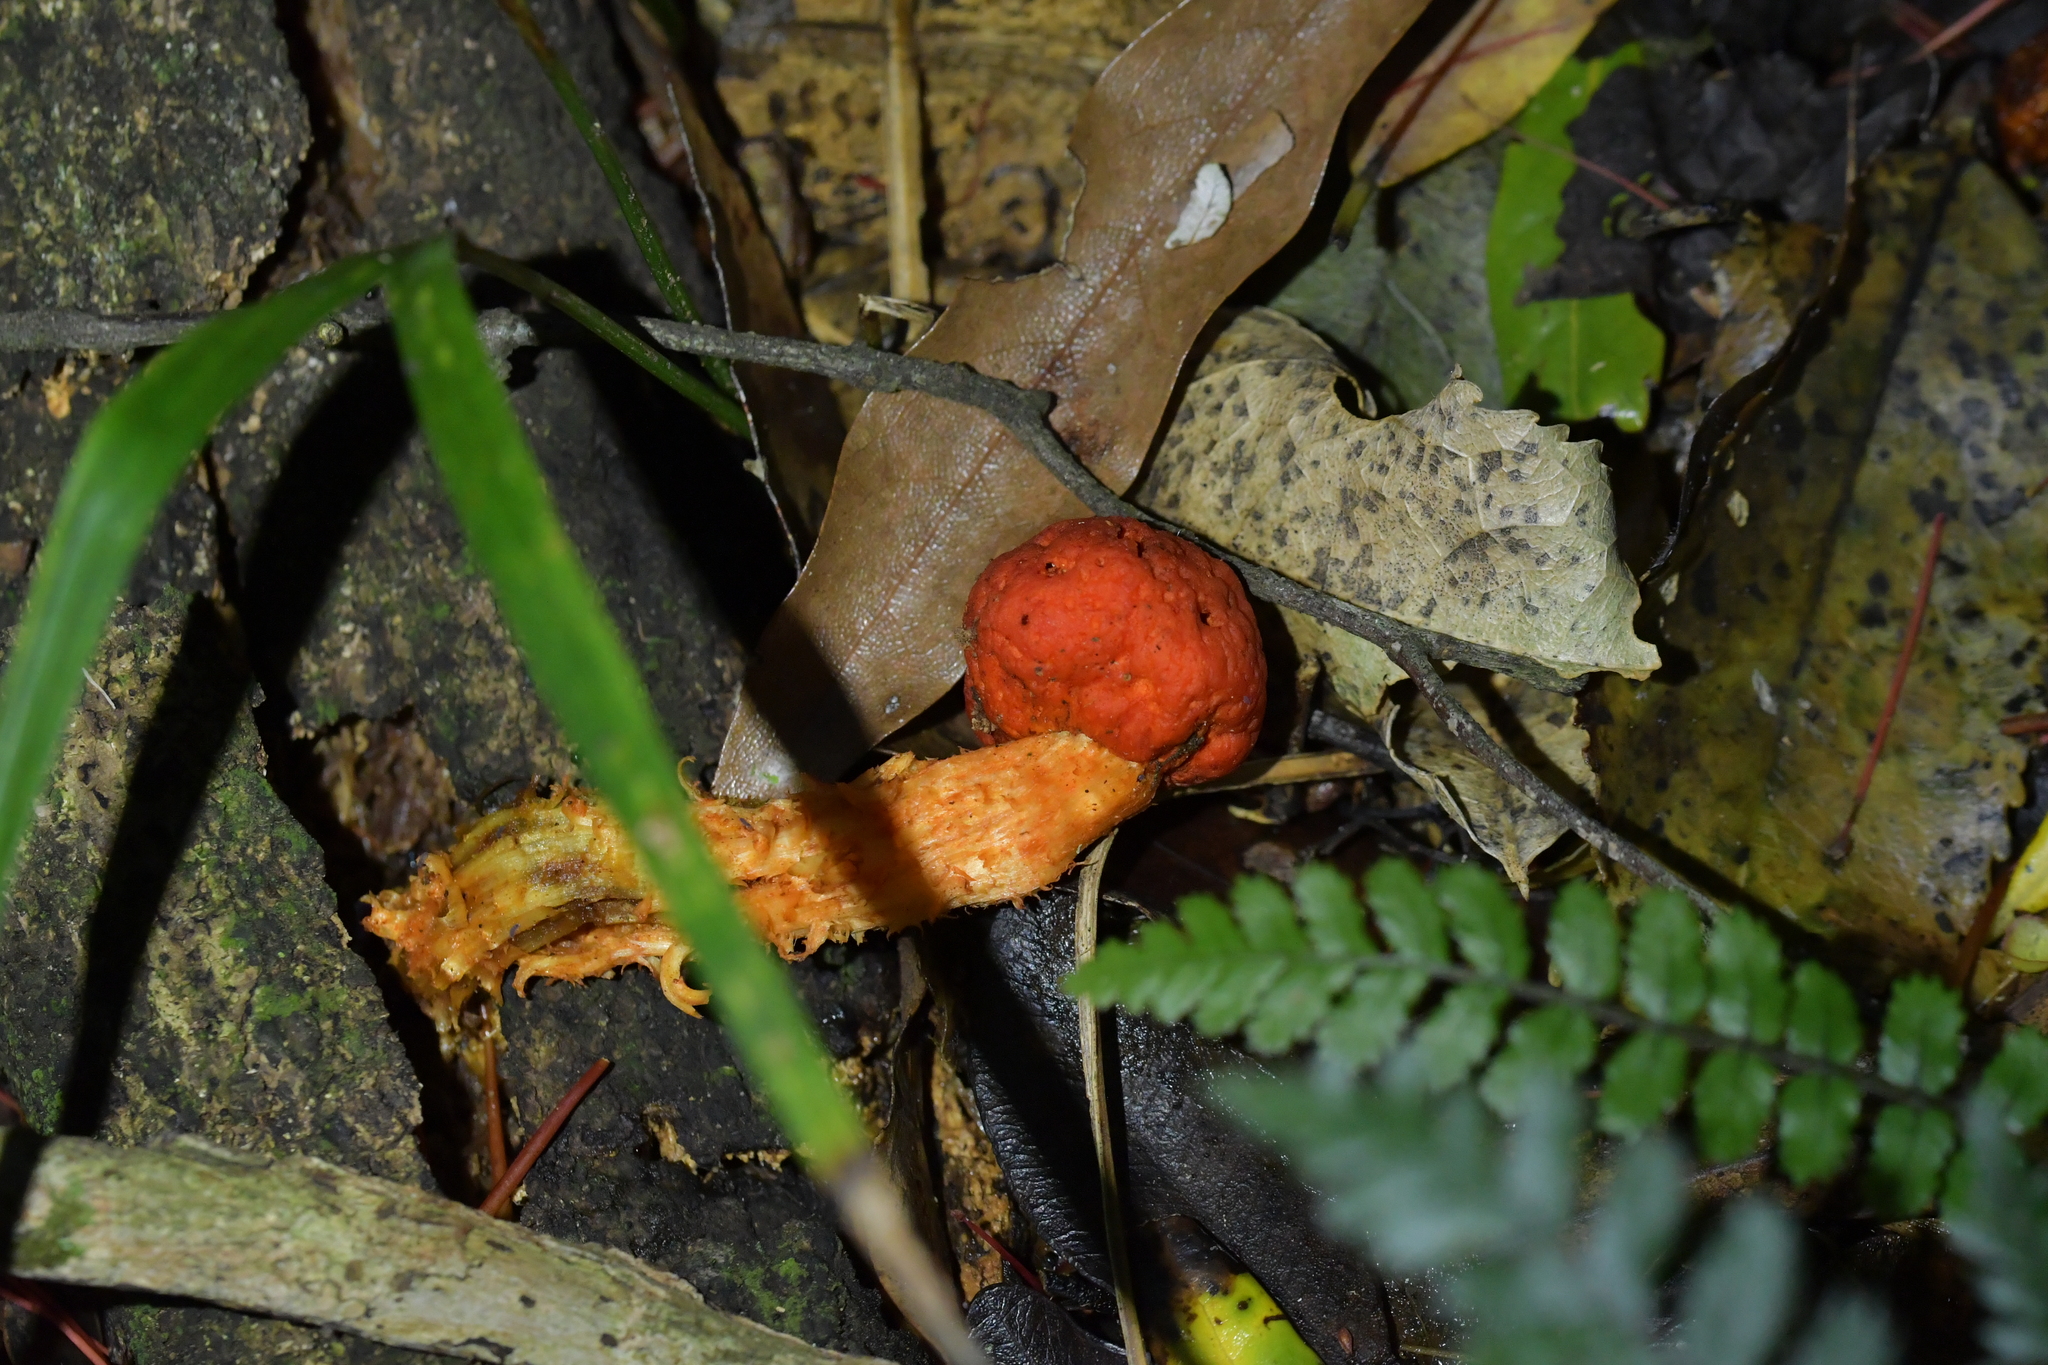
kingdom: Fungi
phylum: Basidiomycota
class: Agaricomycetes
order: Agaricales
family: Strophariaceae
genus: Leratiomyces
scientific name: Leratiomyces erythrocephalus
